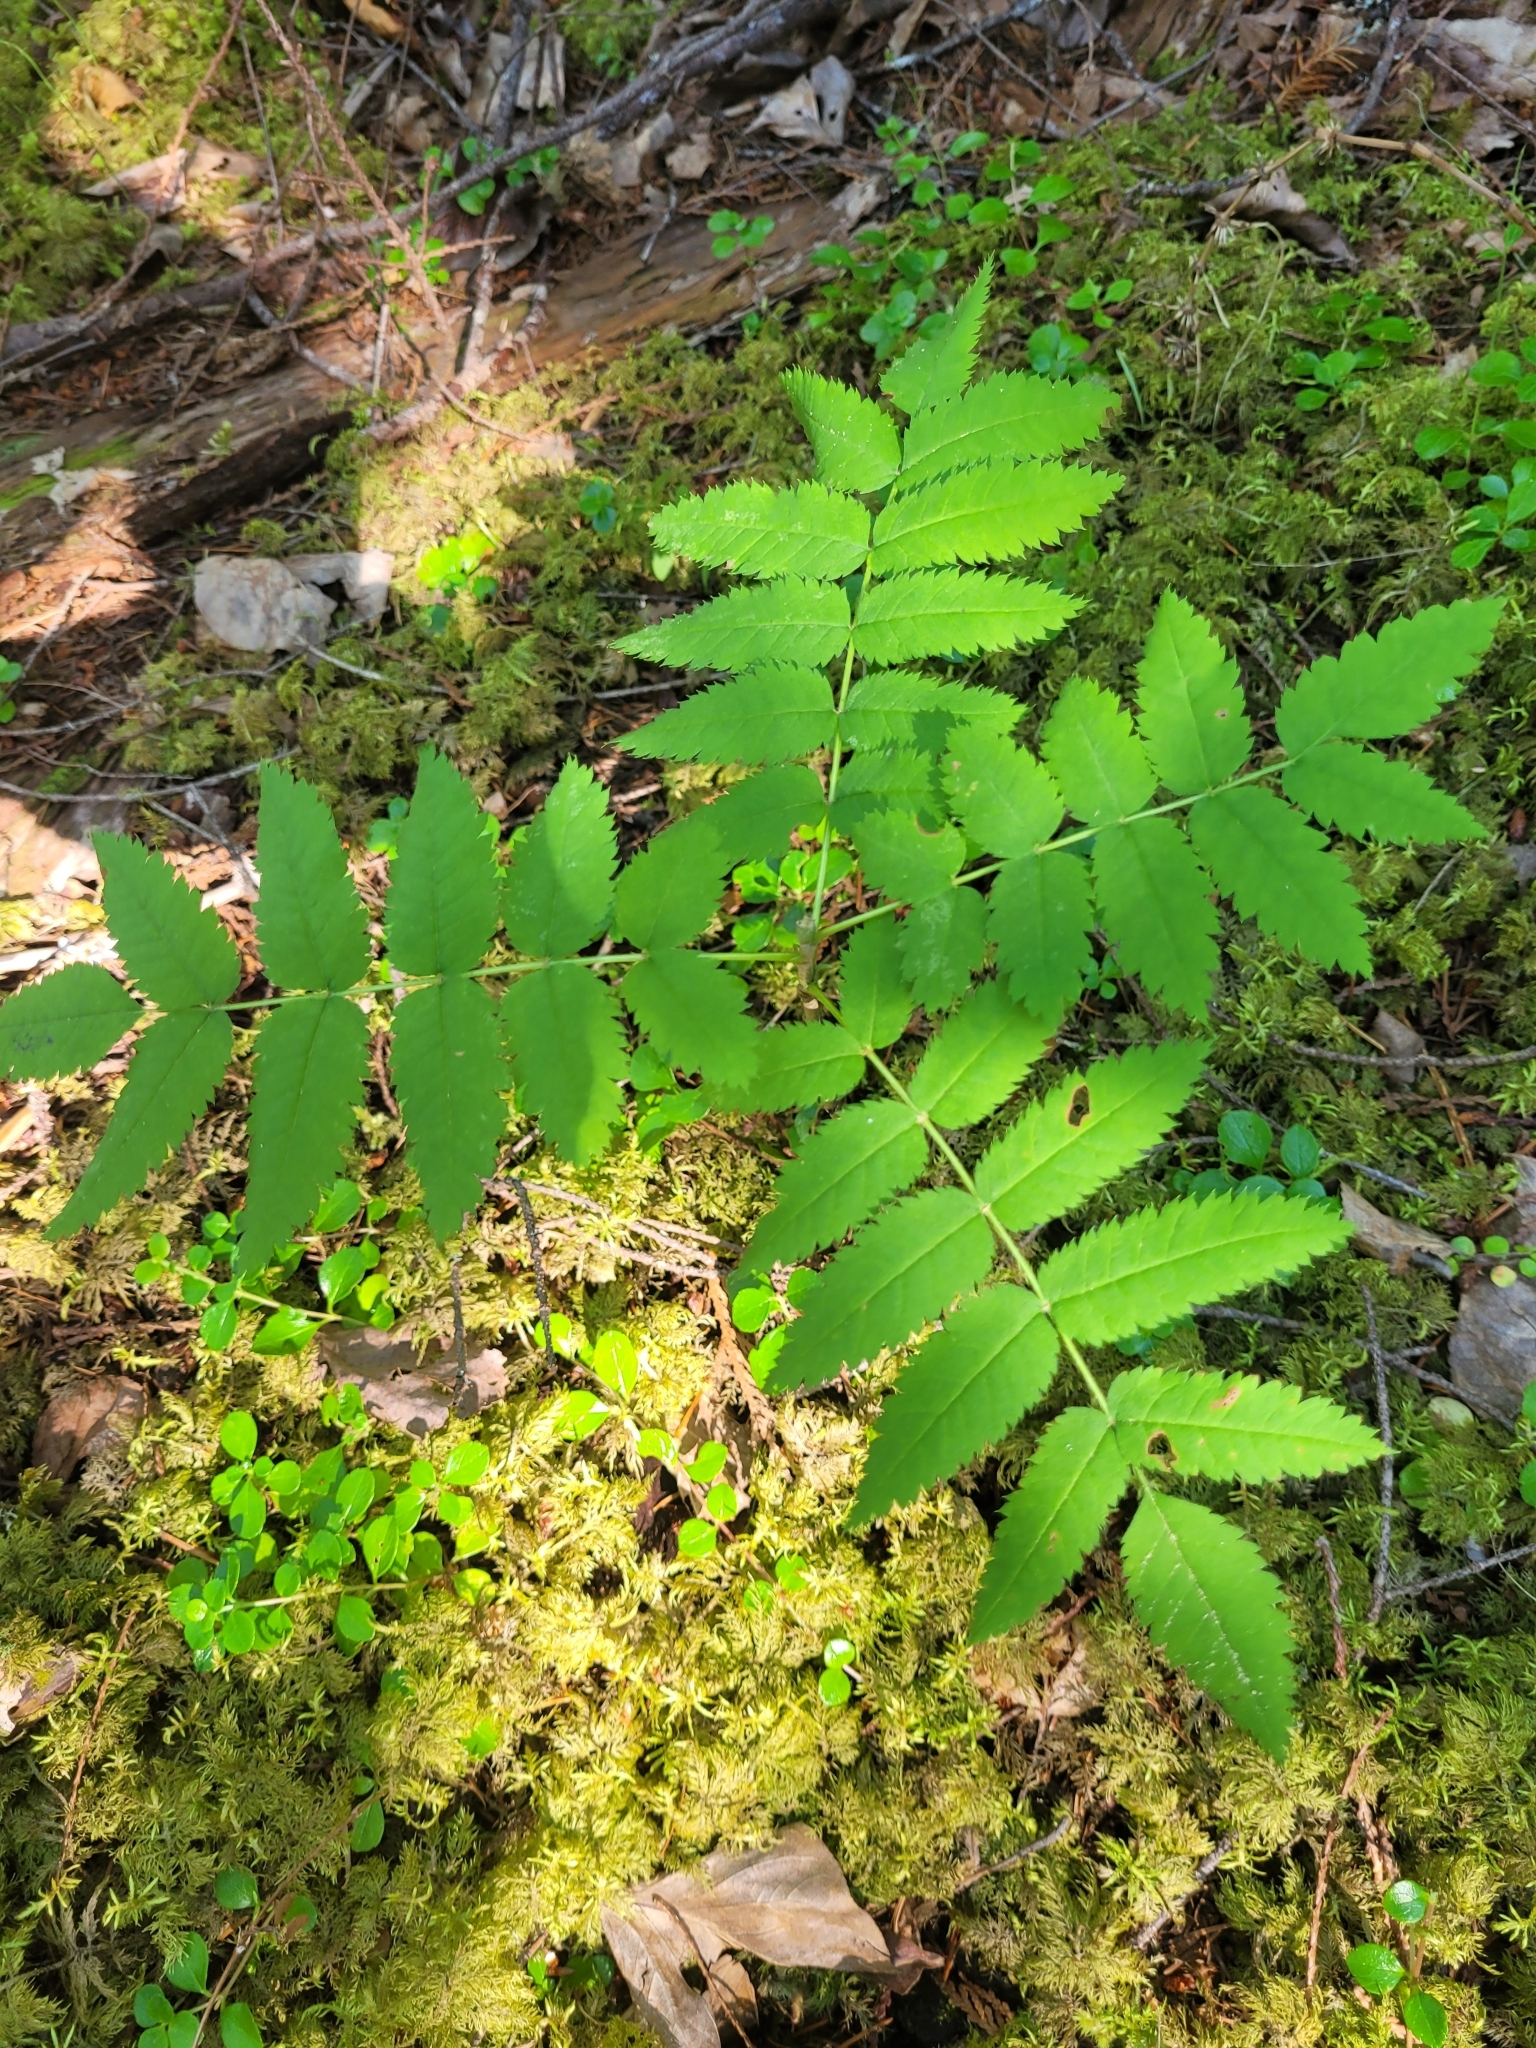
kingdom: Plantae
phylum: Tracheophyta
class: Magnoliopsida
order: Rosales
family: Rosaceae
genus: Sorbus
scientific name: Sorbus aucuparia
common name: Rowan
